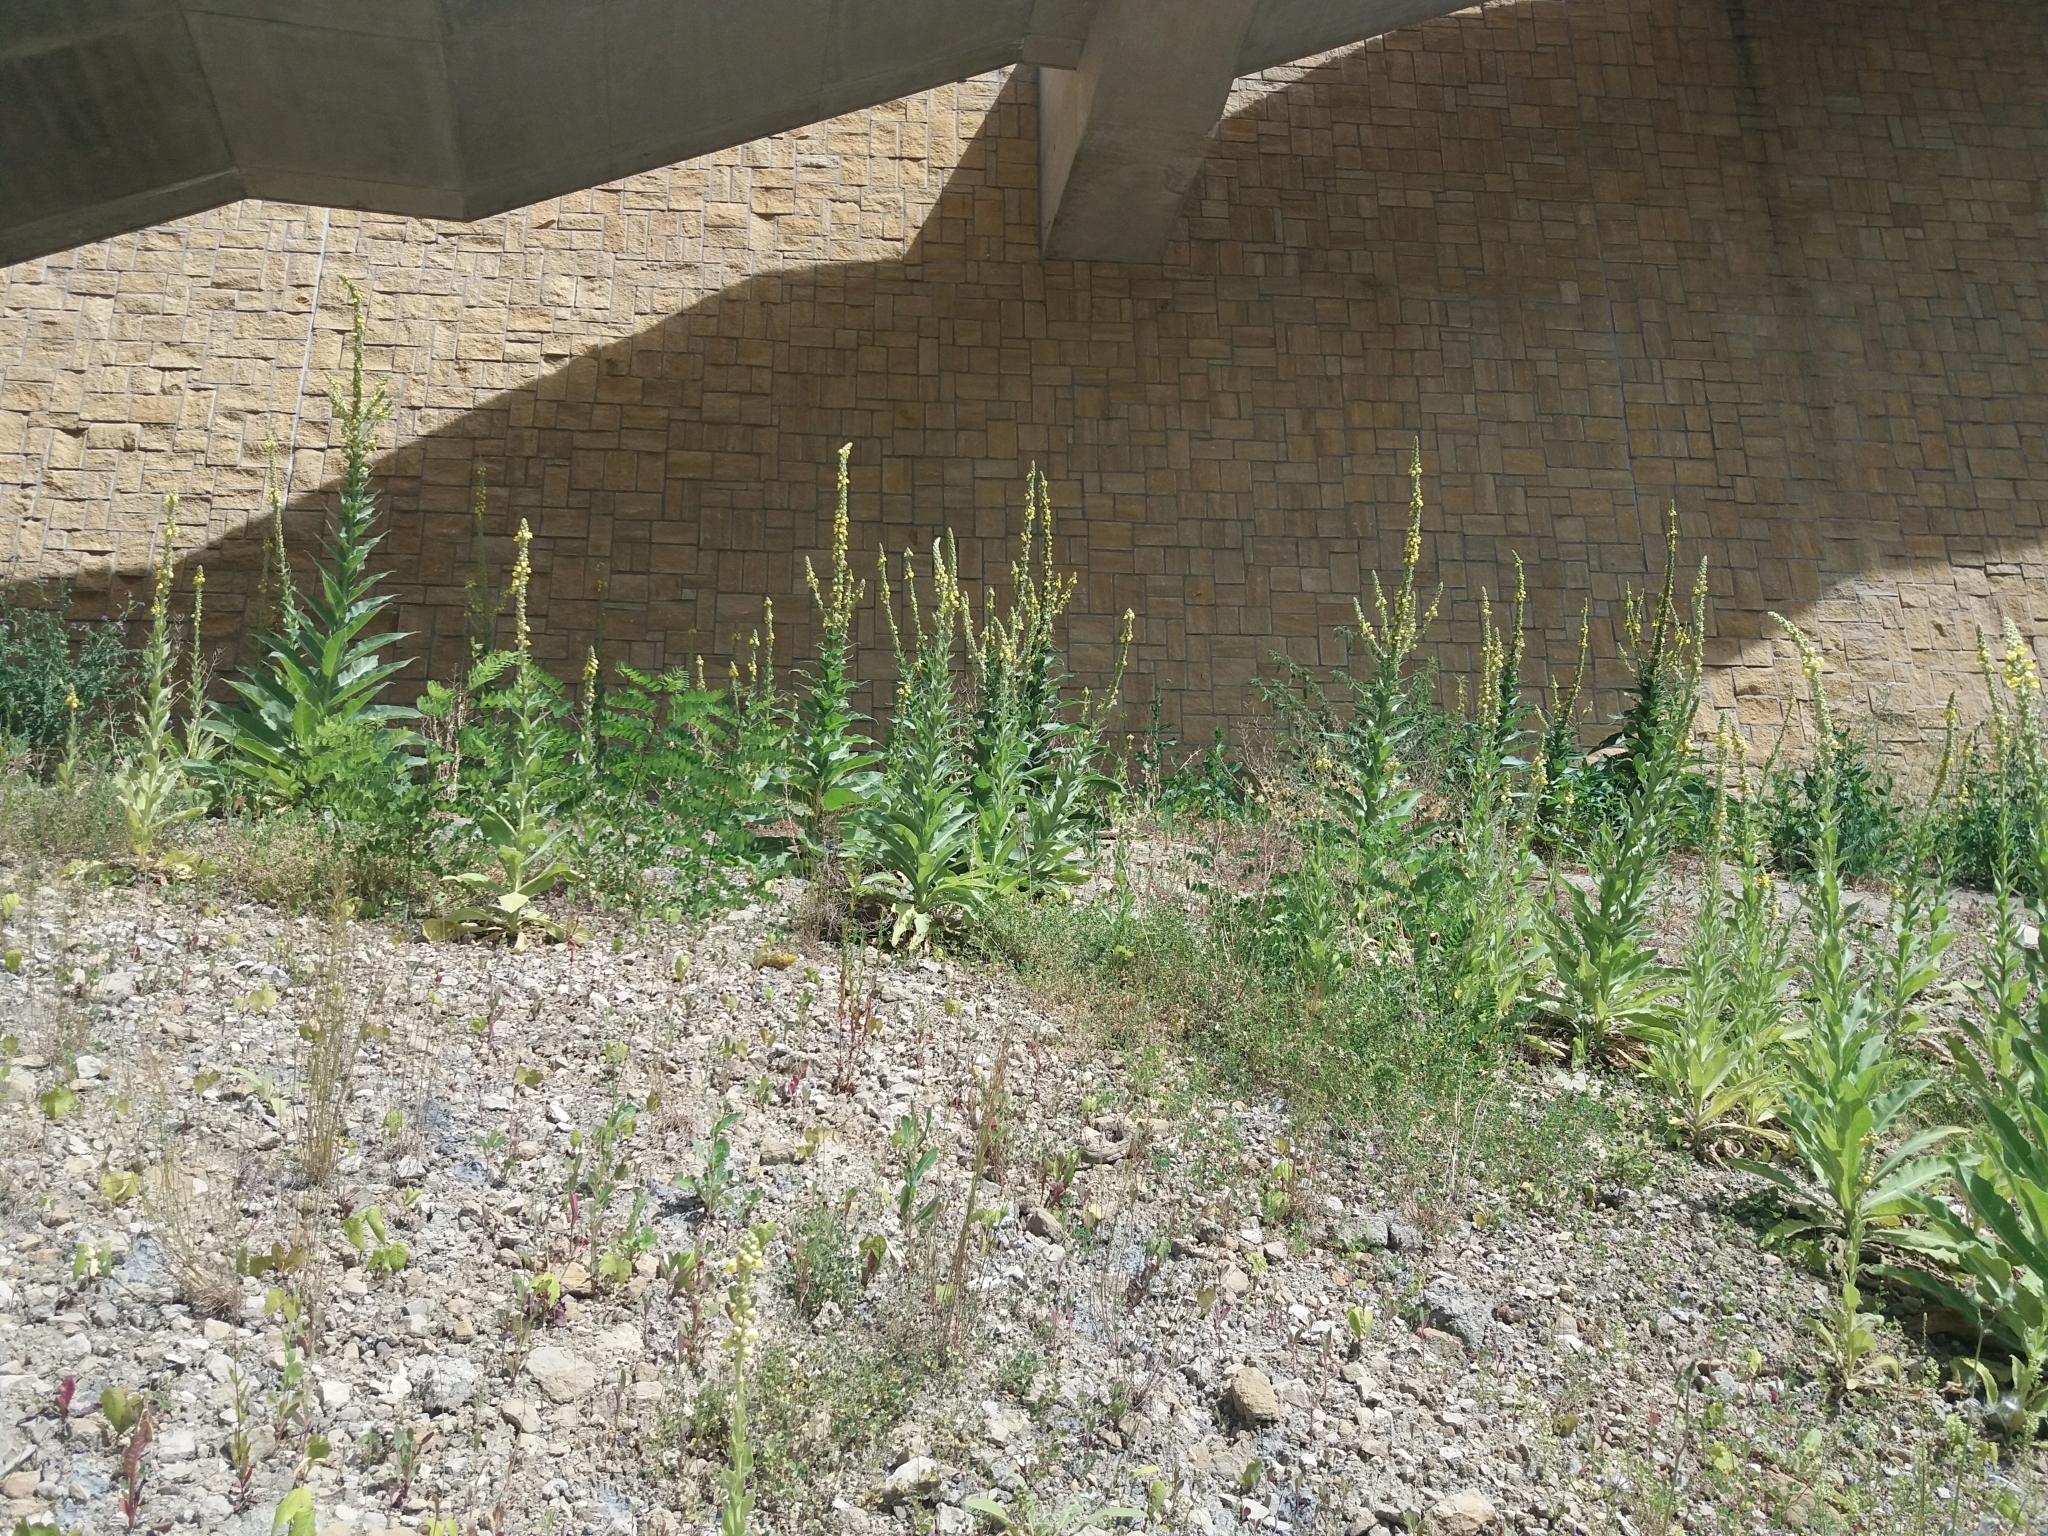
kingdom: Plantae
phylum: Tracheophyta
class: Magnoliopsida
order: Lamiales
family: Scrophulariaceae
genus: Verbascum
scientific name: Verbascum thapsus
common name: Common mullein
